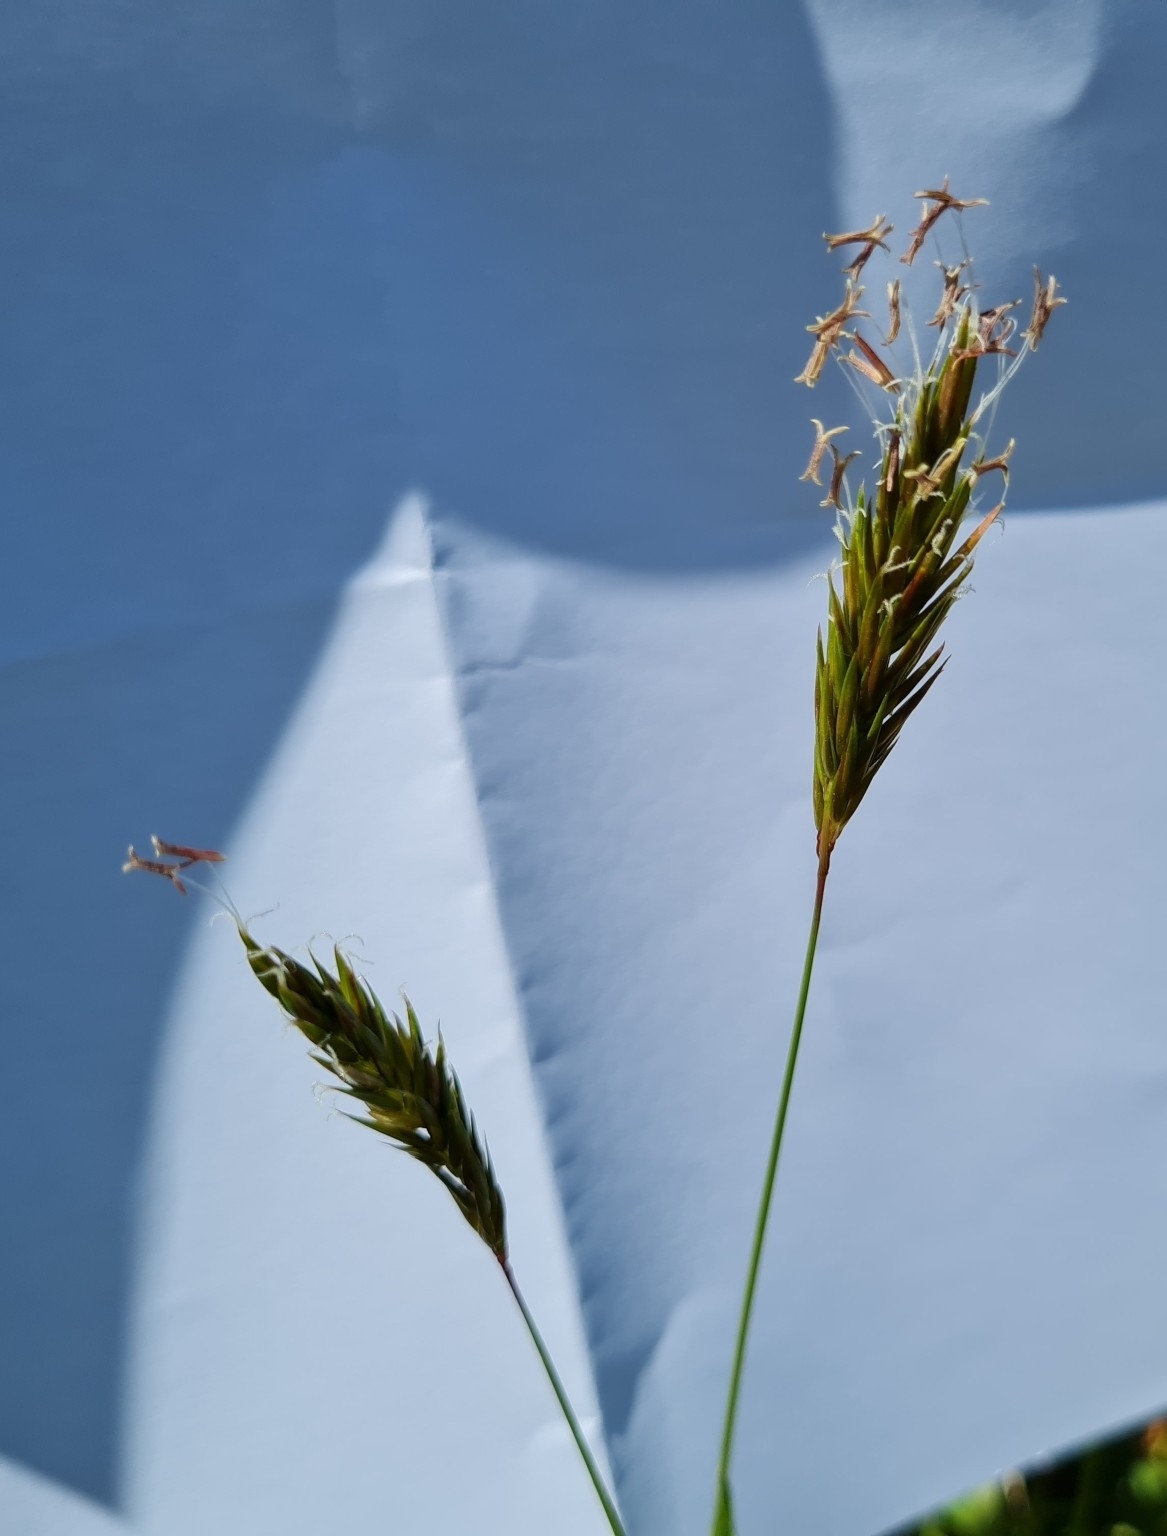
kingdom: Plantae
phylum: Tracheophyta
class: Liliopsida
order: Poales
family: Poaceae
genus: Anthoxanthum
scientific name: Anthoxanthum odoratum
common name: Sweet vernalgrass
